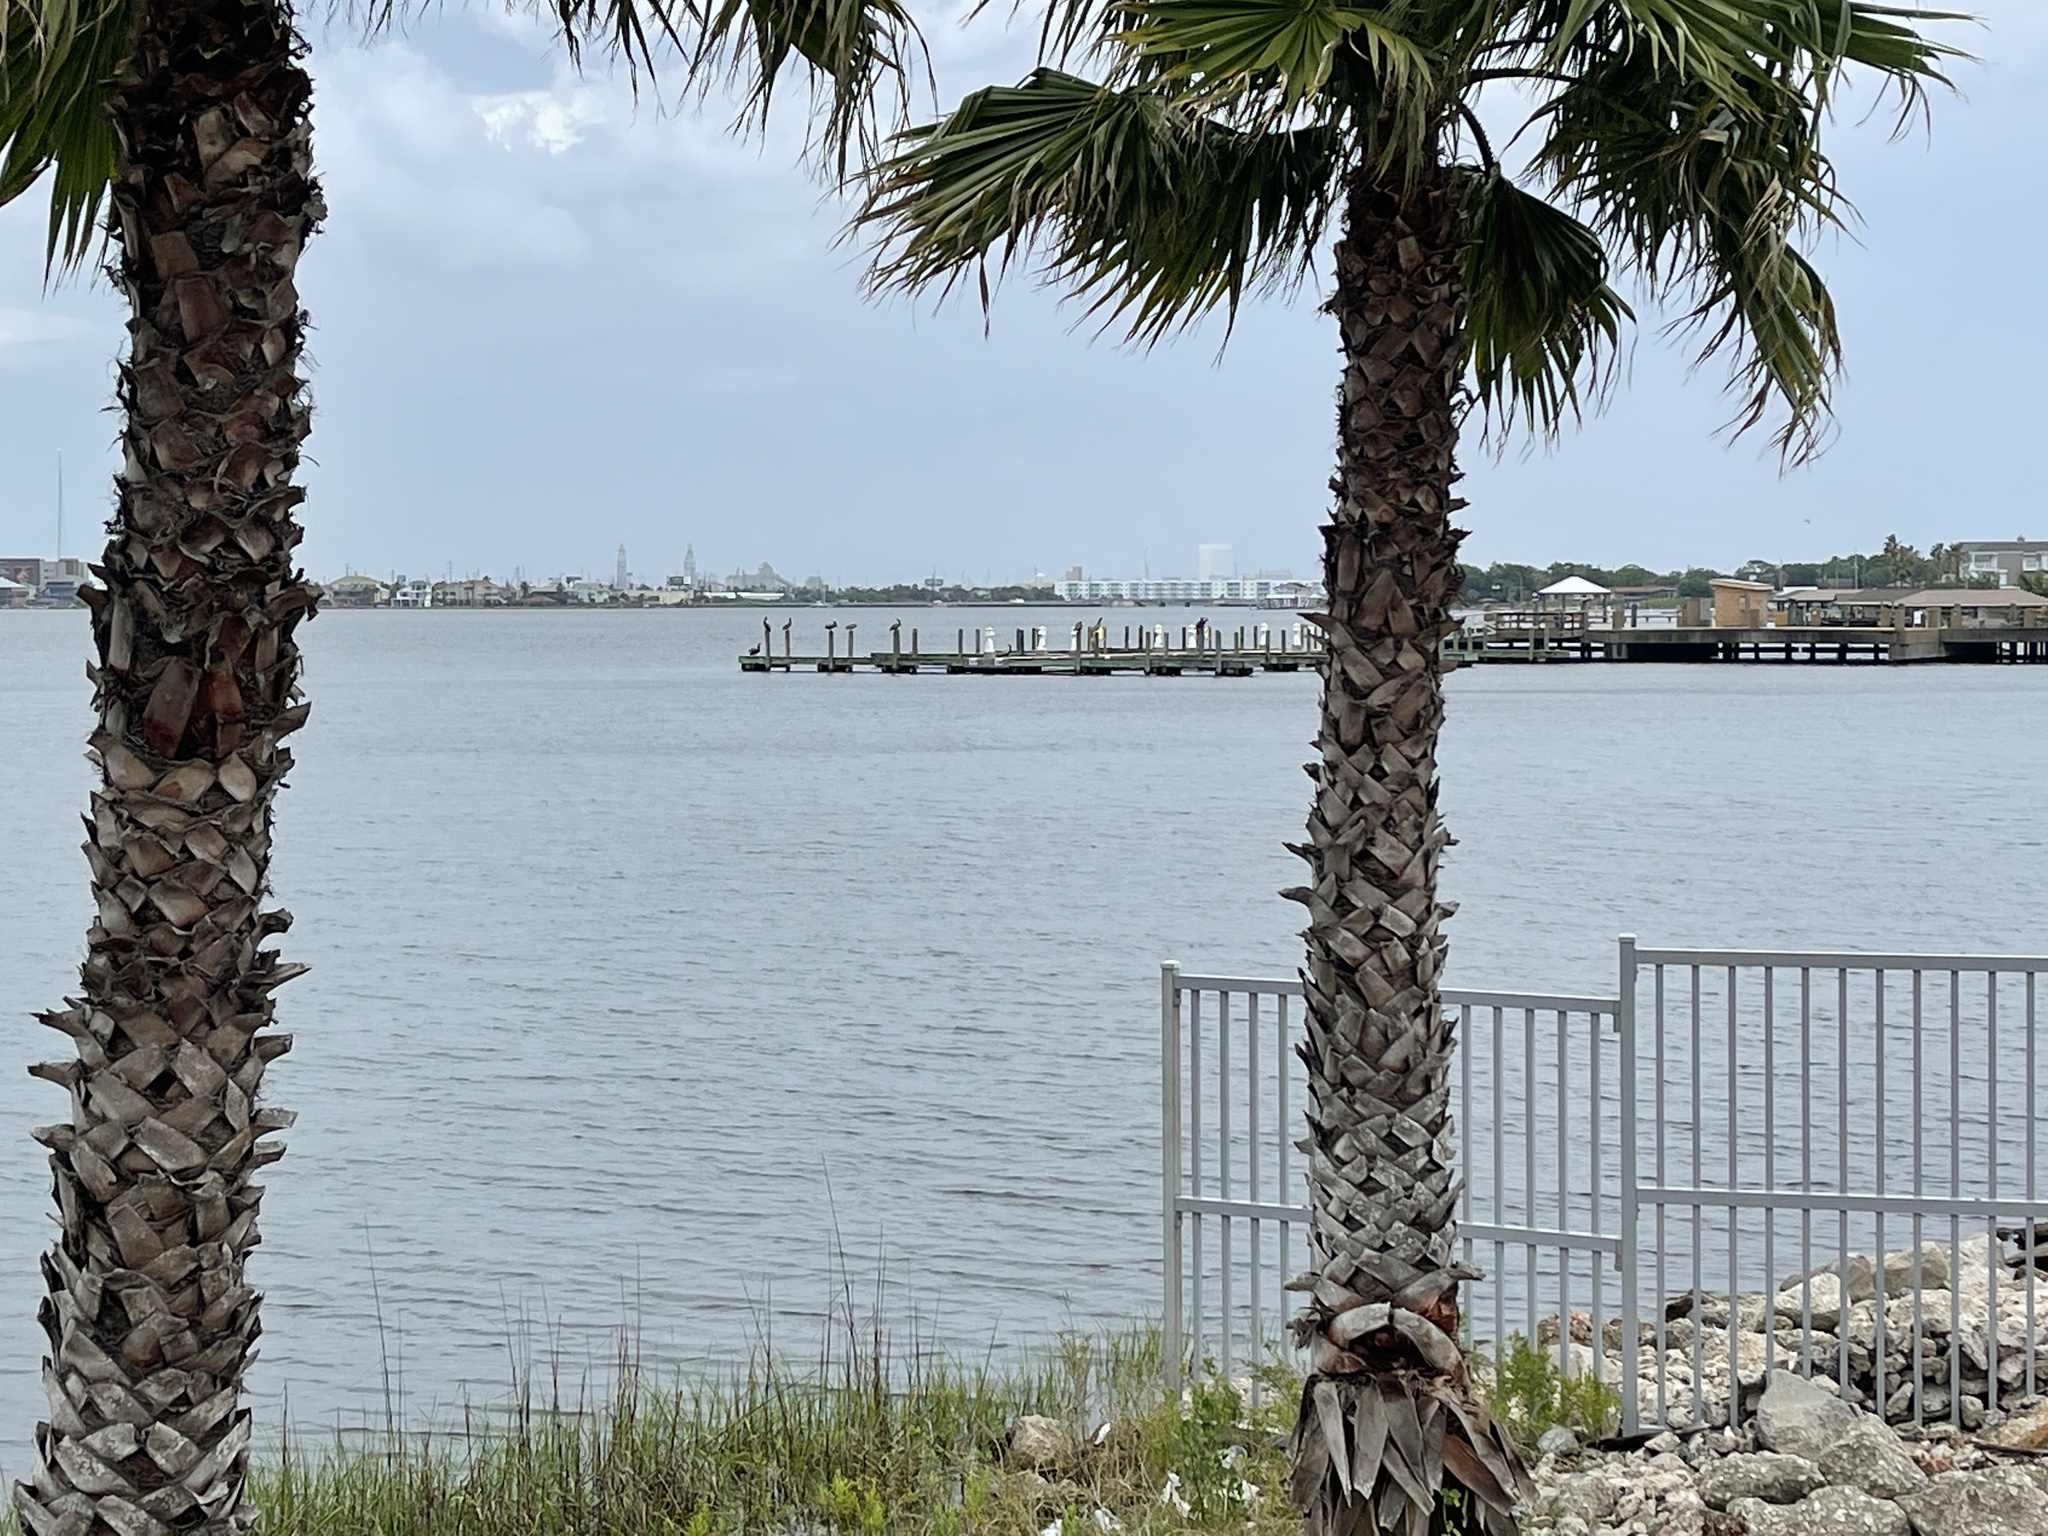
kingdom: Animalia
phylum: Chordata
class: Aves
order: Pelecaniformes
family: Pelecanidae
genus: Pelecanus
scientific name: Pelecanus occidentalis
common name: Brown pelican
